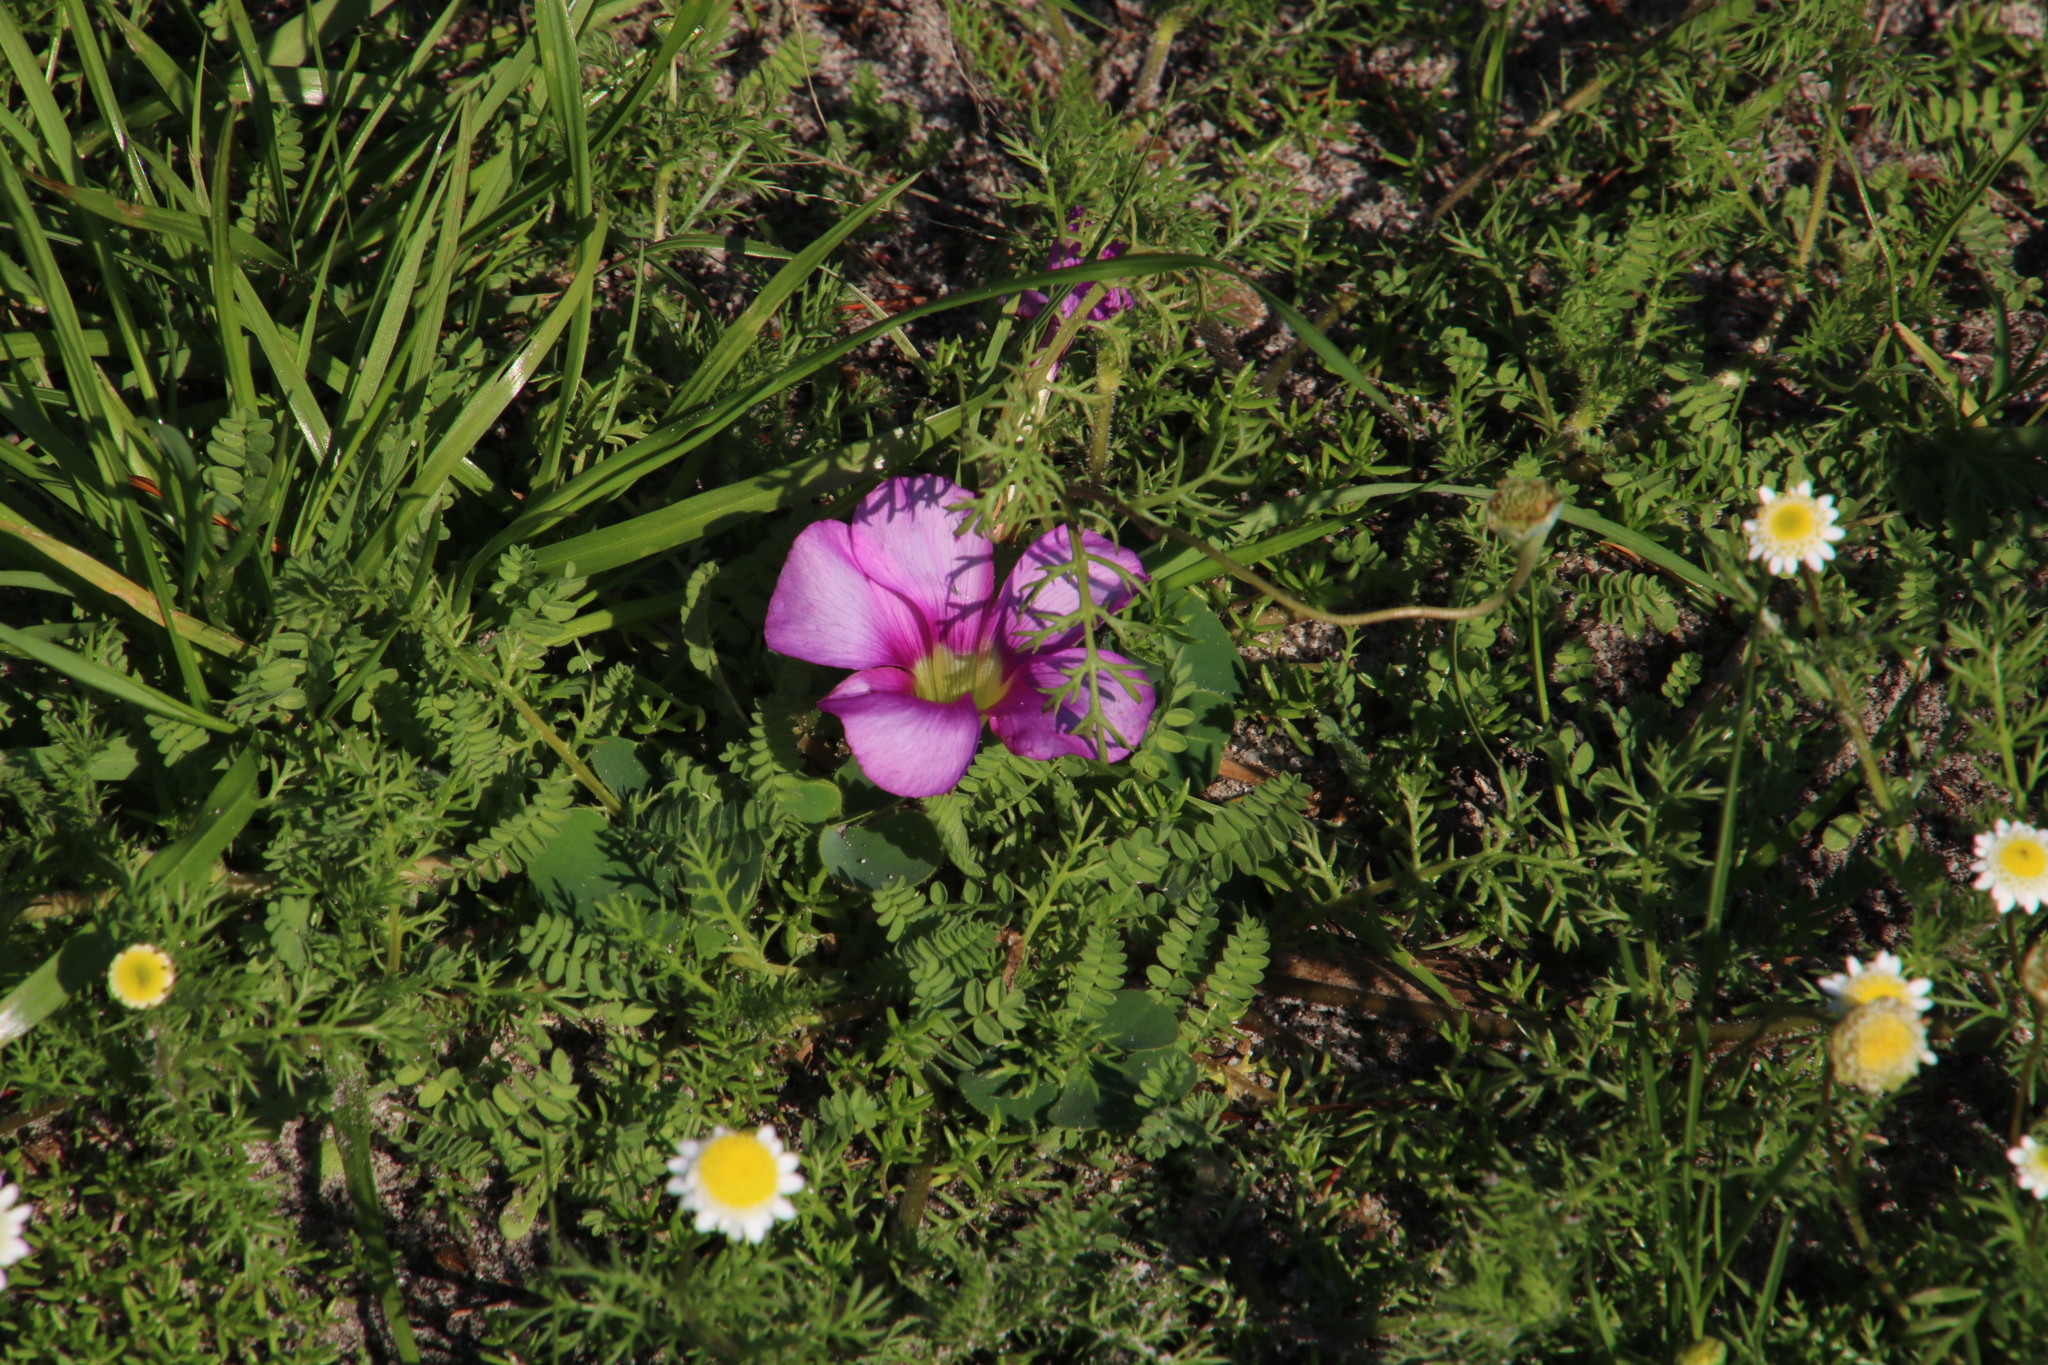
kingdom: Plantae
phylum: Tracheophyta
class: Magnoliopsida
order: Oxalidales
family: Oxalidaceae
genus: Oxalis
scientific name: Oxalis purpurea
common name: Purple woodsorrel
